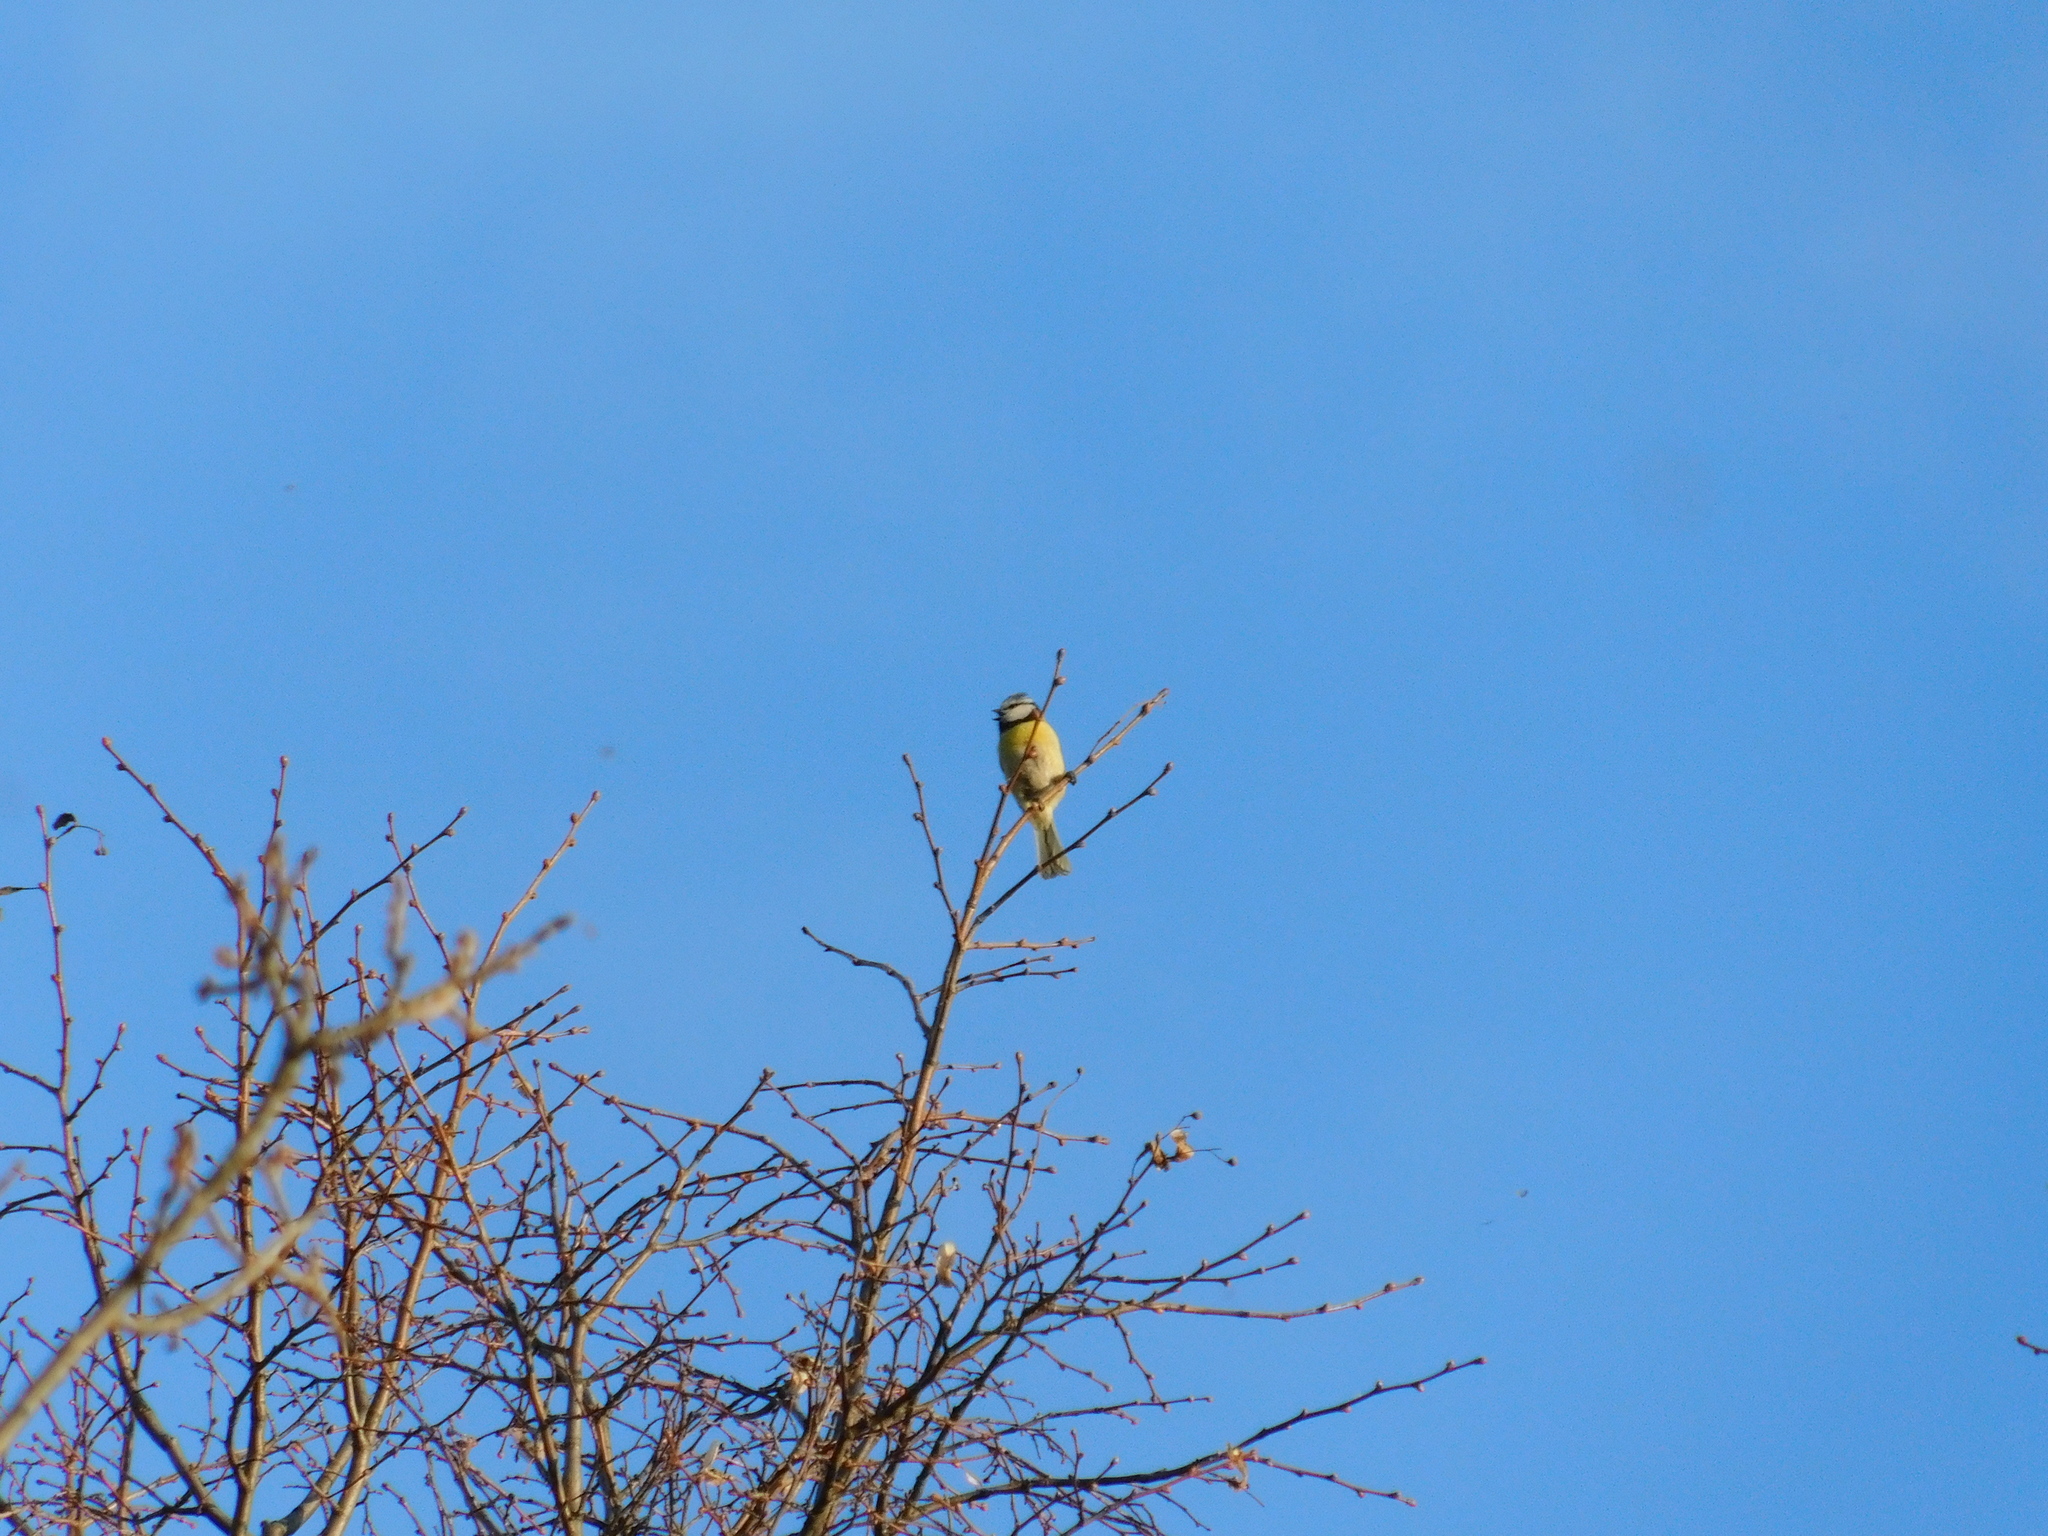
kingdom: Animalia
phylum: Chordata
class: Aves
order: Passeriformes
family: Paridae
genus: Cyanistes
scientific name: Cyanistes caeruleus
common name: Eurasian blue tit
